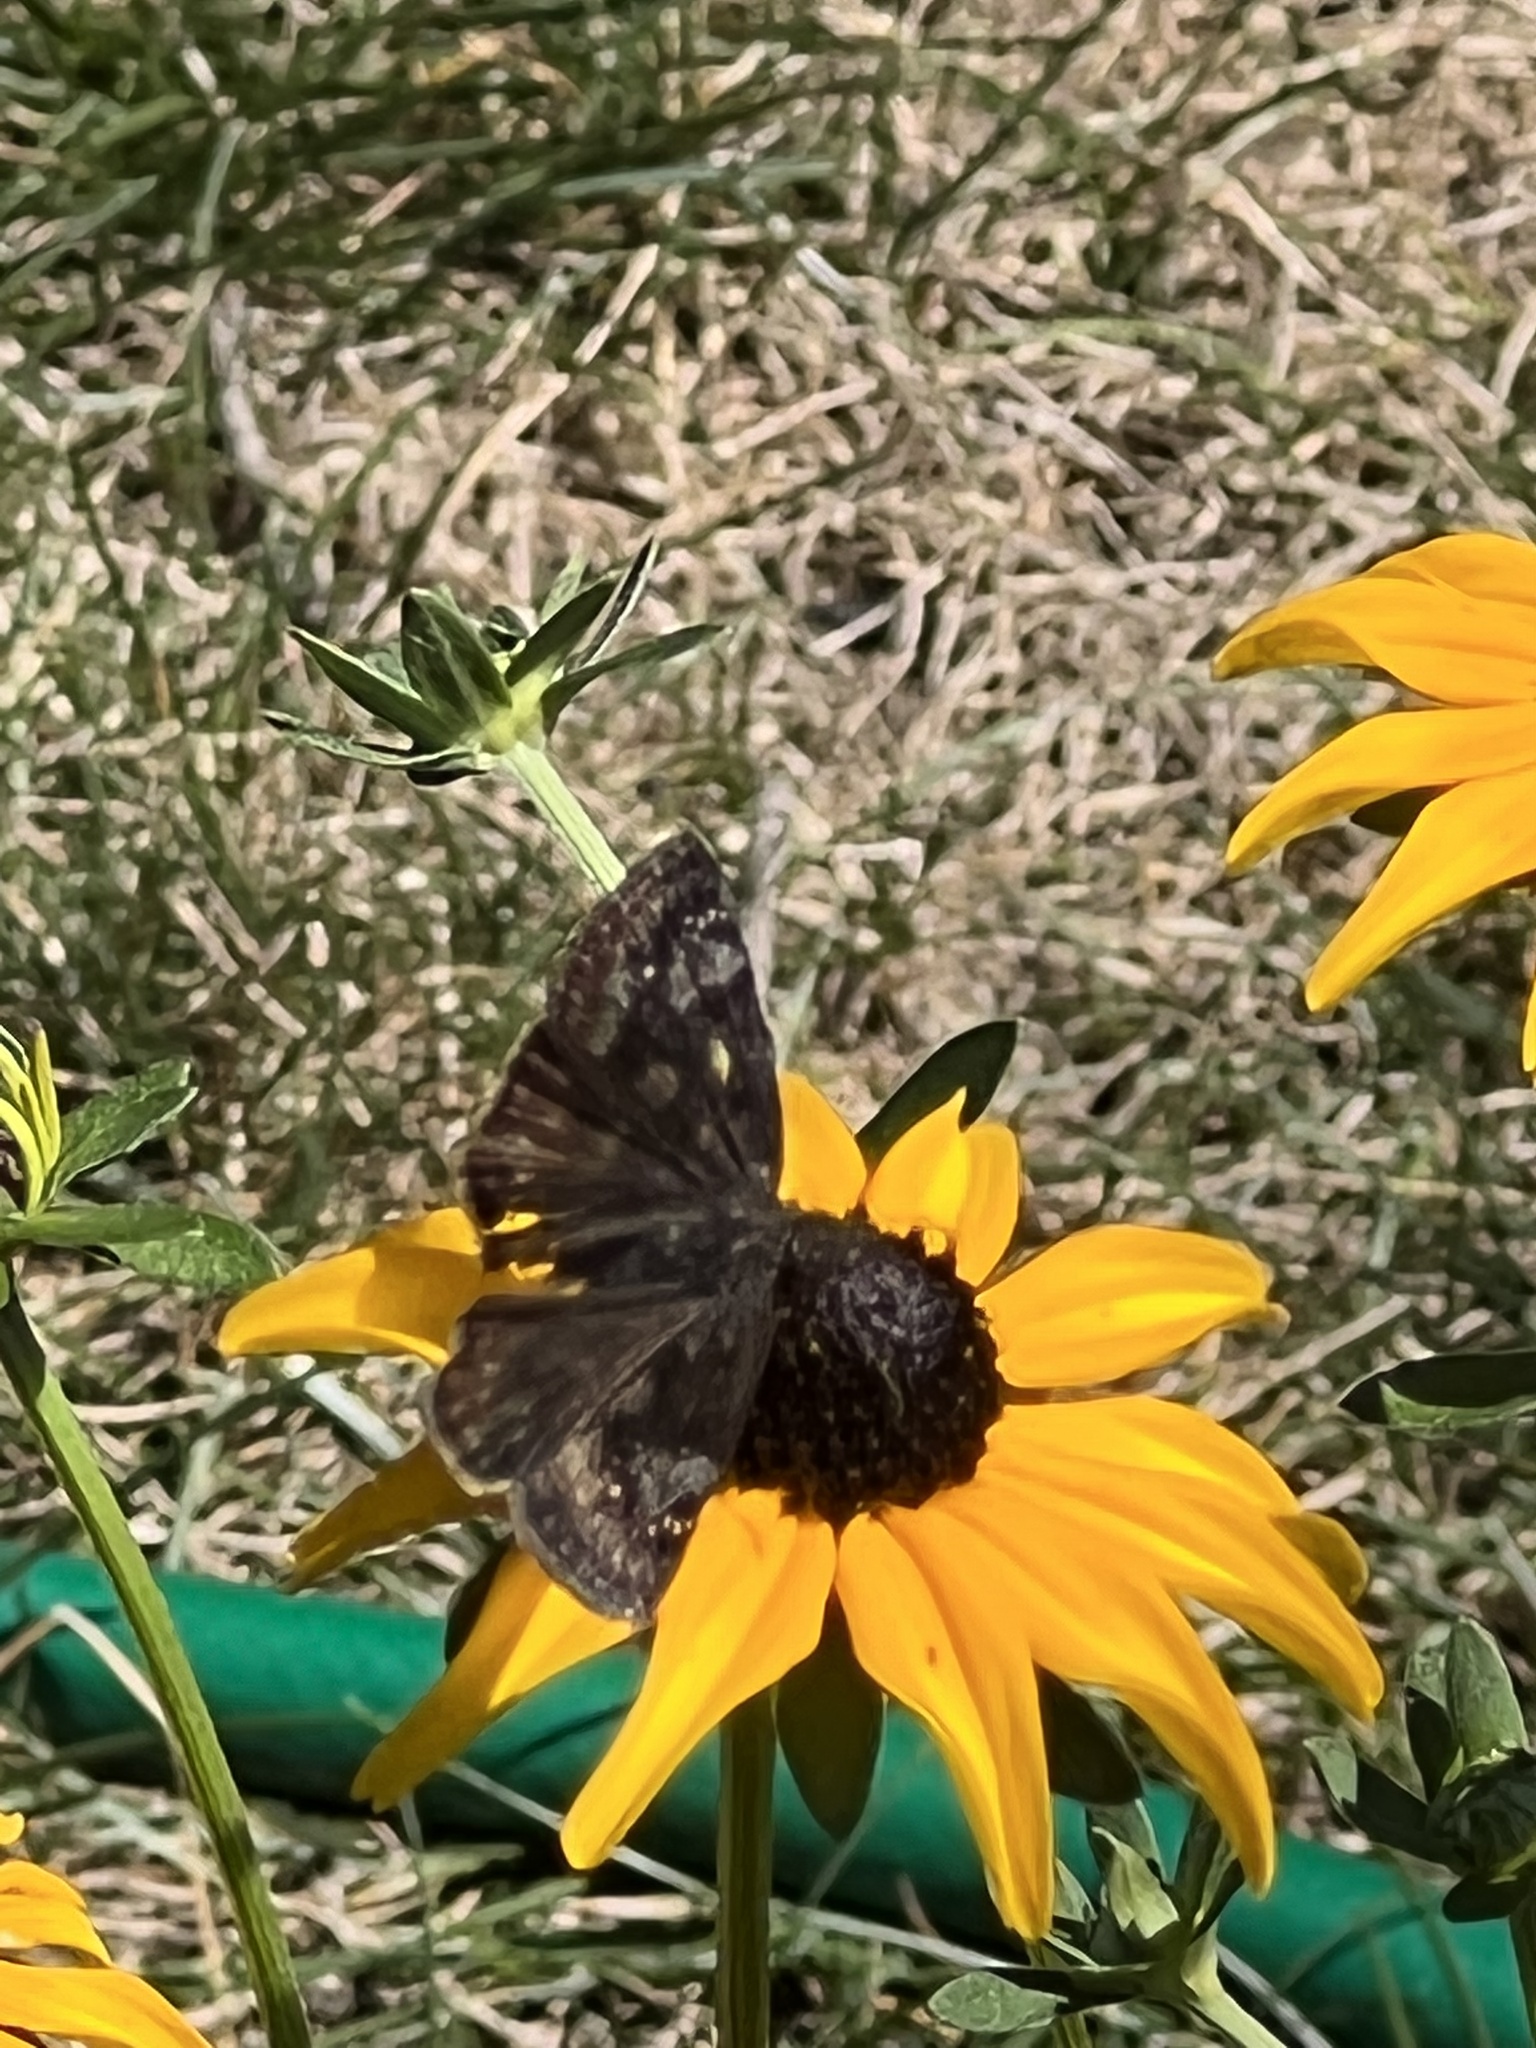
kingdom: Animalia
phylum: Arthropoda
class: Insecta
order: Lepidoptera
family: Hesperiidae
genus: Erynnis
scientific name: Erynnis baptisiae
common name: Wild indigo duskywing
